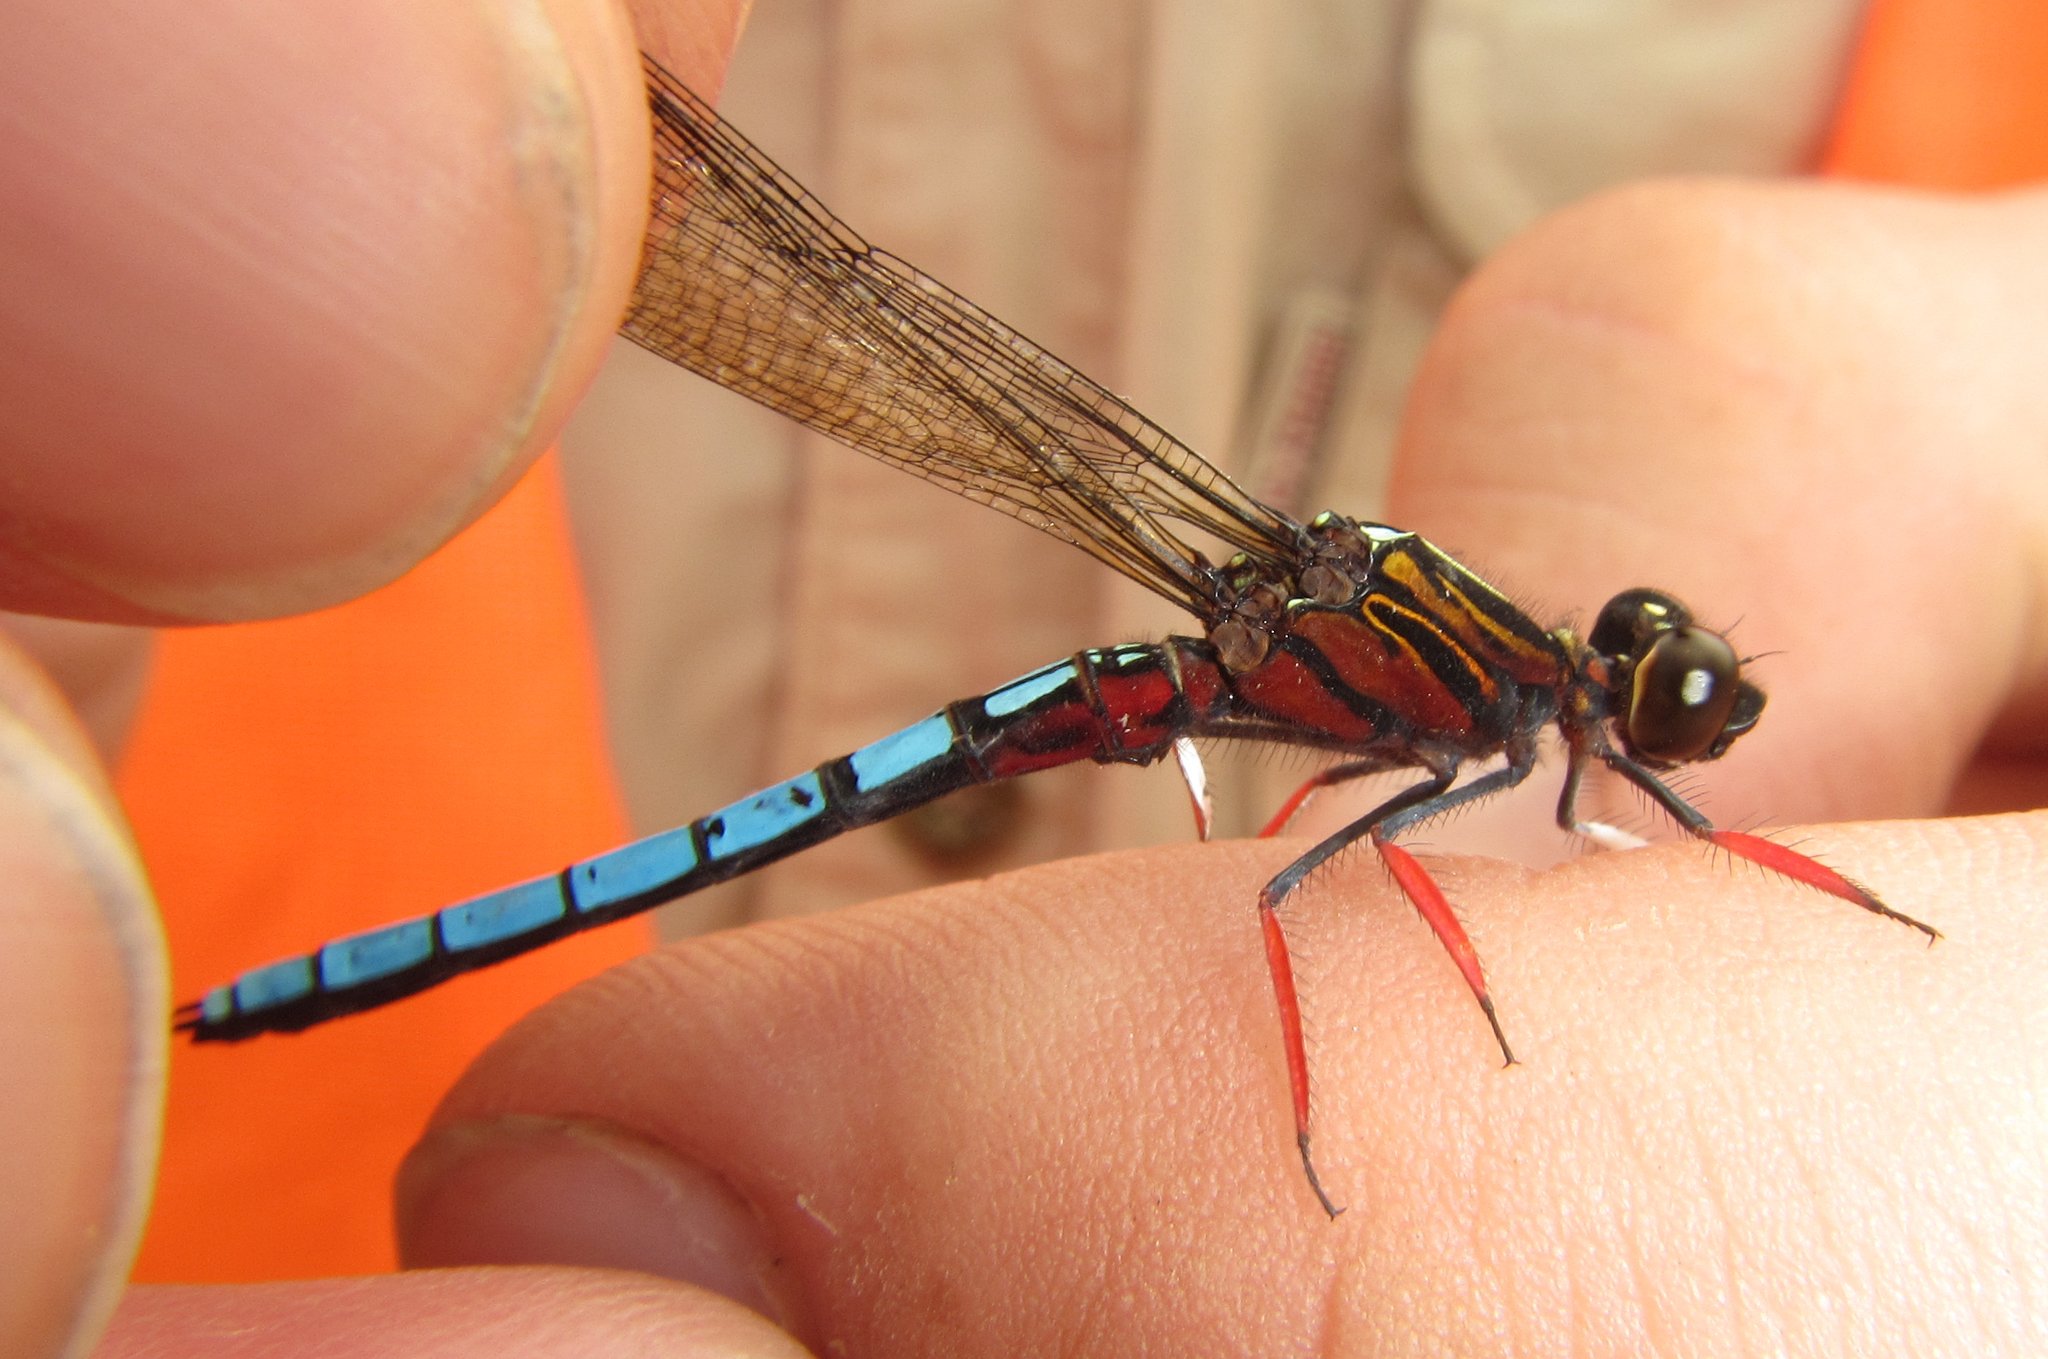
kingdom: Animalia
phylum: Arthropoda
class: Insecta
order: Odonata
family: Chlorocyphidae
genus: Platycypha
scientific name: Platycypha caligata
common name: Dancing jewel
